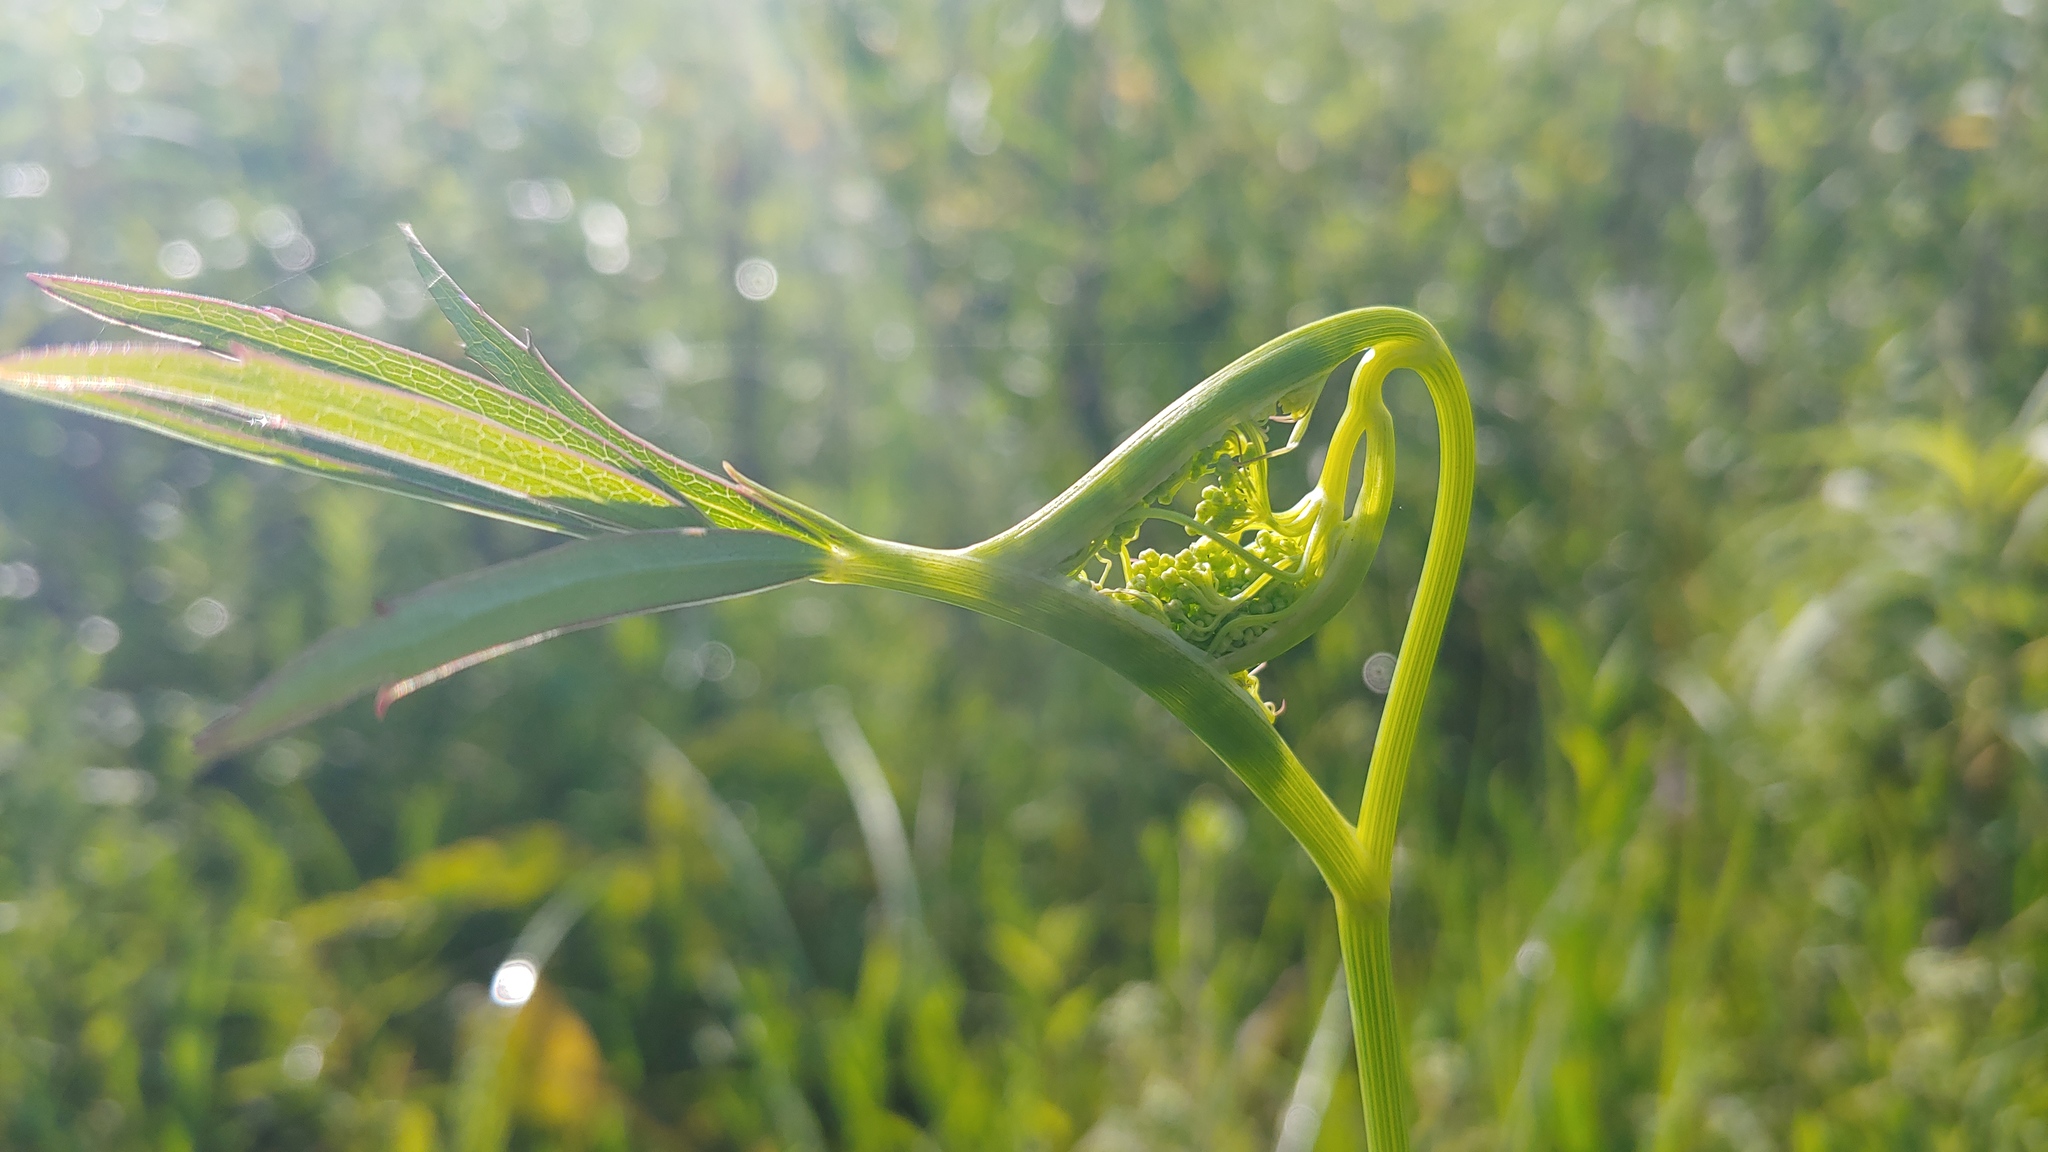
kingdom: Plantae
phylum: Tracheophyta
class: Magnoliopsida
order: Apiales
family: Apiaceae
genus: Oxypolis
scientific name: Oxypolis rigidior
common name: Cowbane
